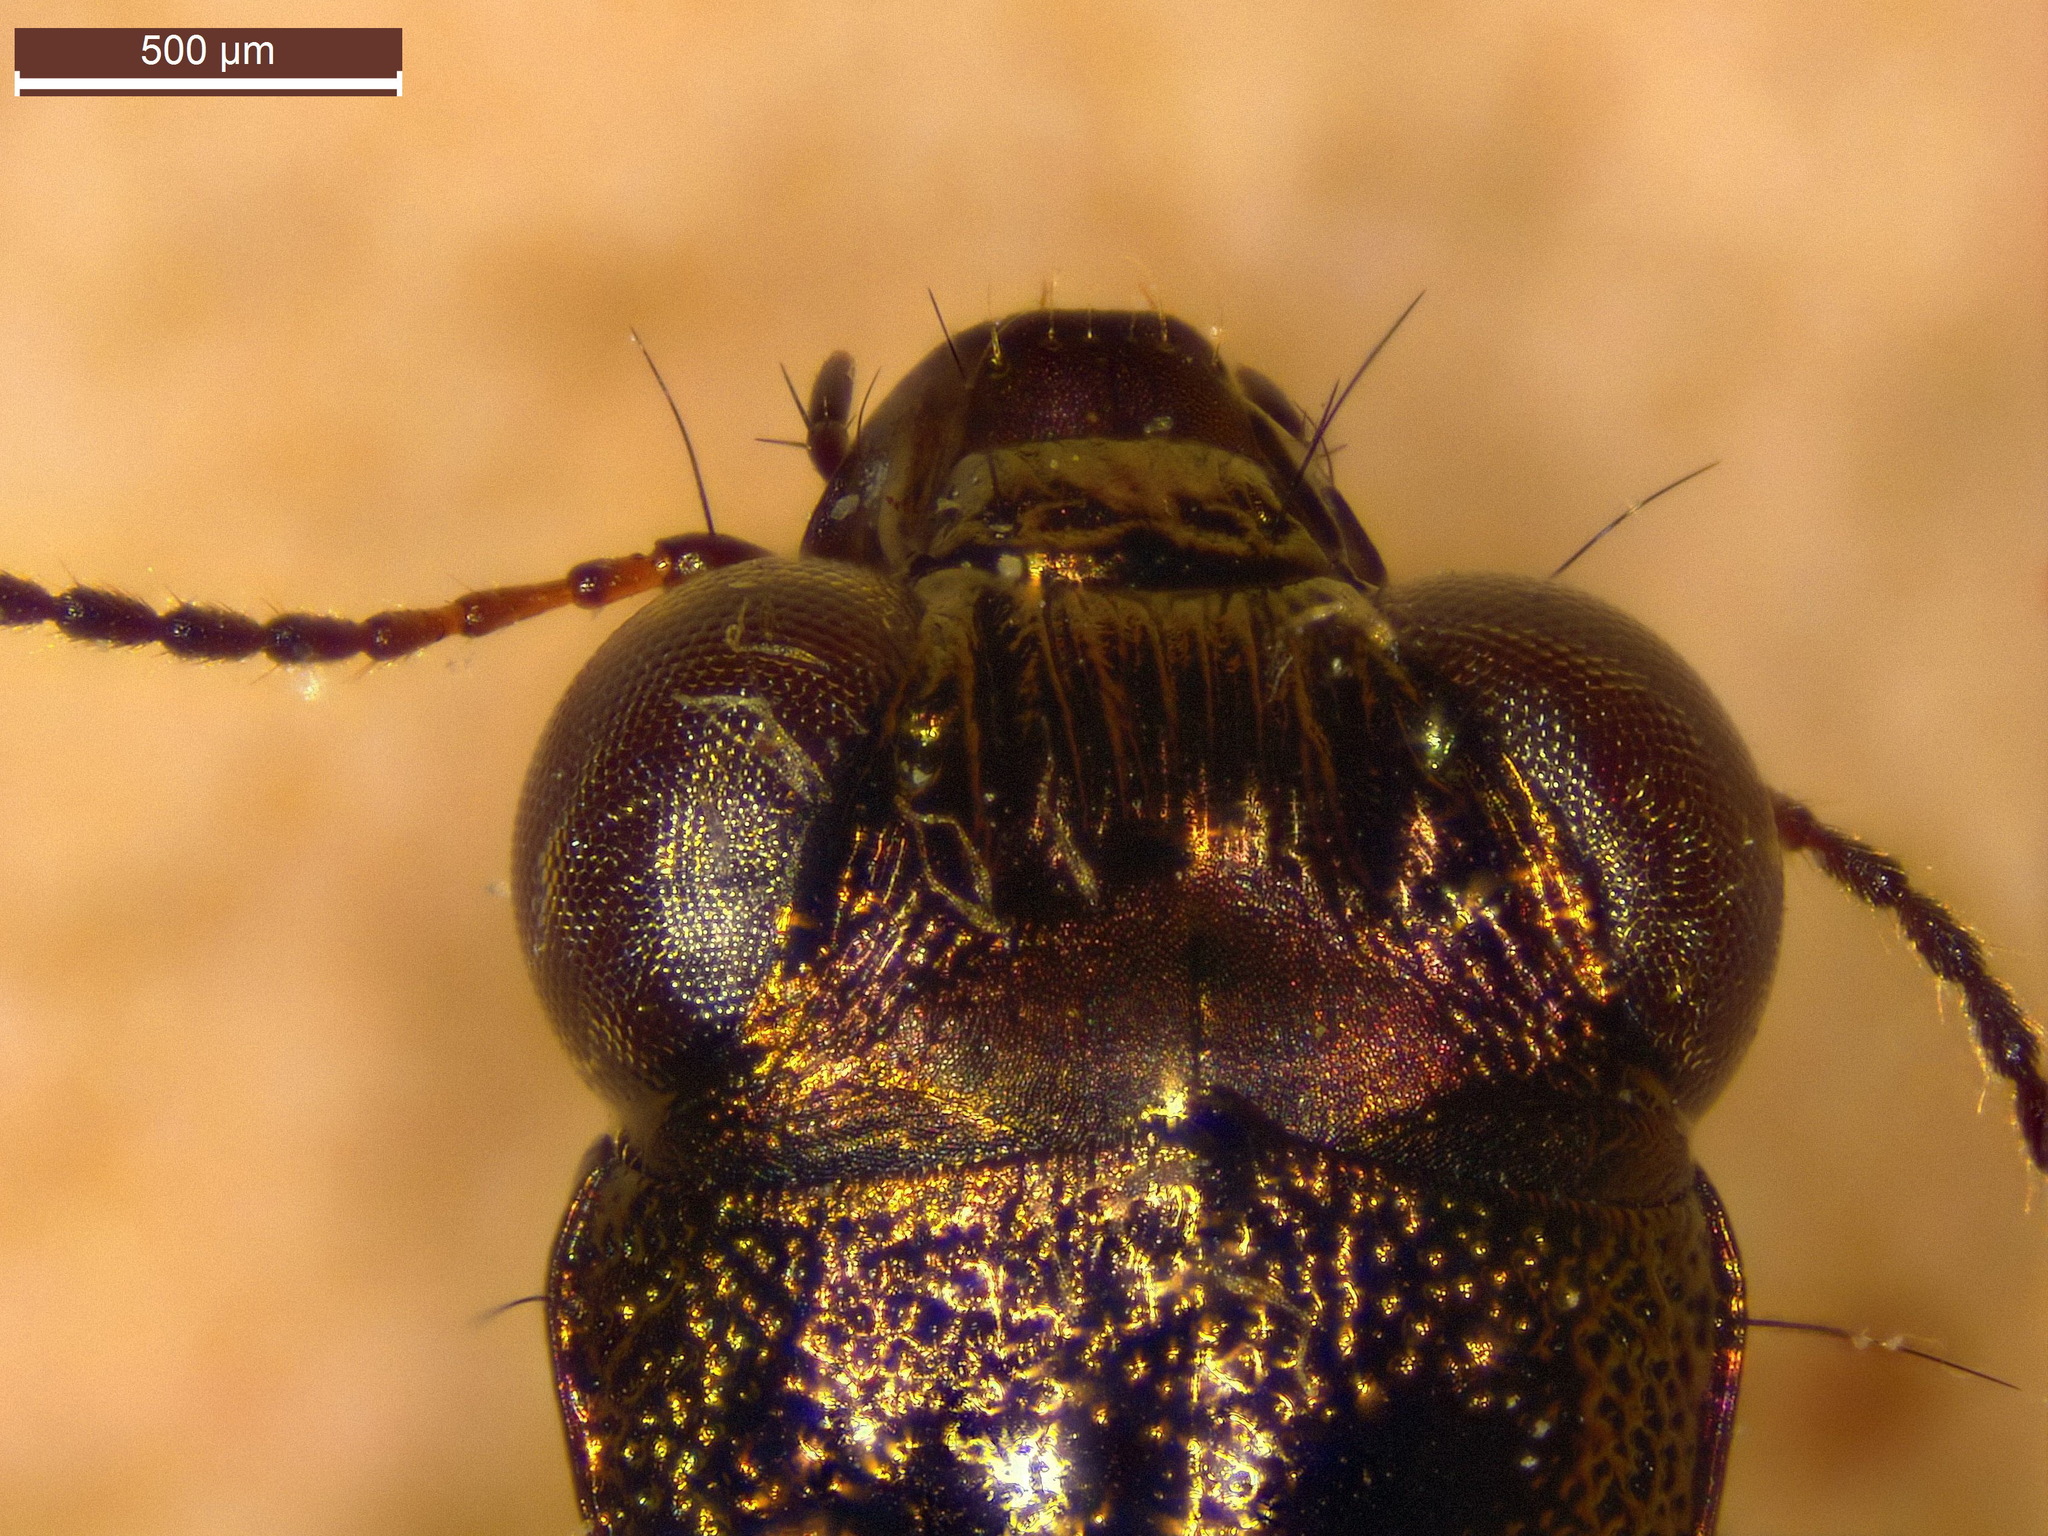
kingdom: Animalia
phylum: Arthropoda
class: Insecta
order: Coleoptera
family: Carabidae
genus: Notiophilus
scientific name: Notiophilus biguttatus
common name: Spotted gazelle beetle
